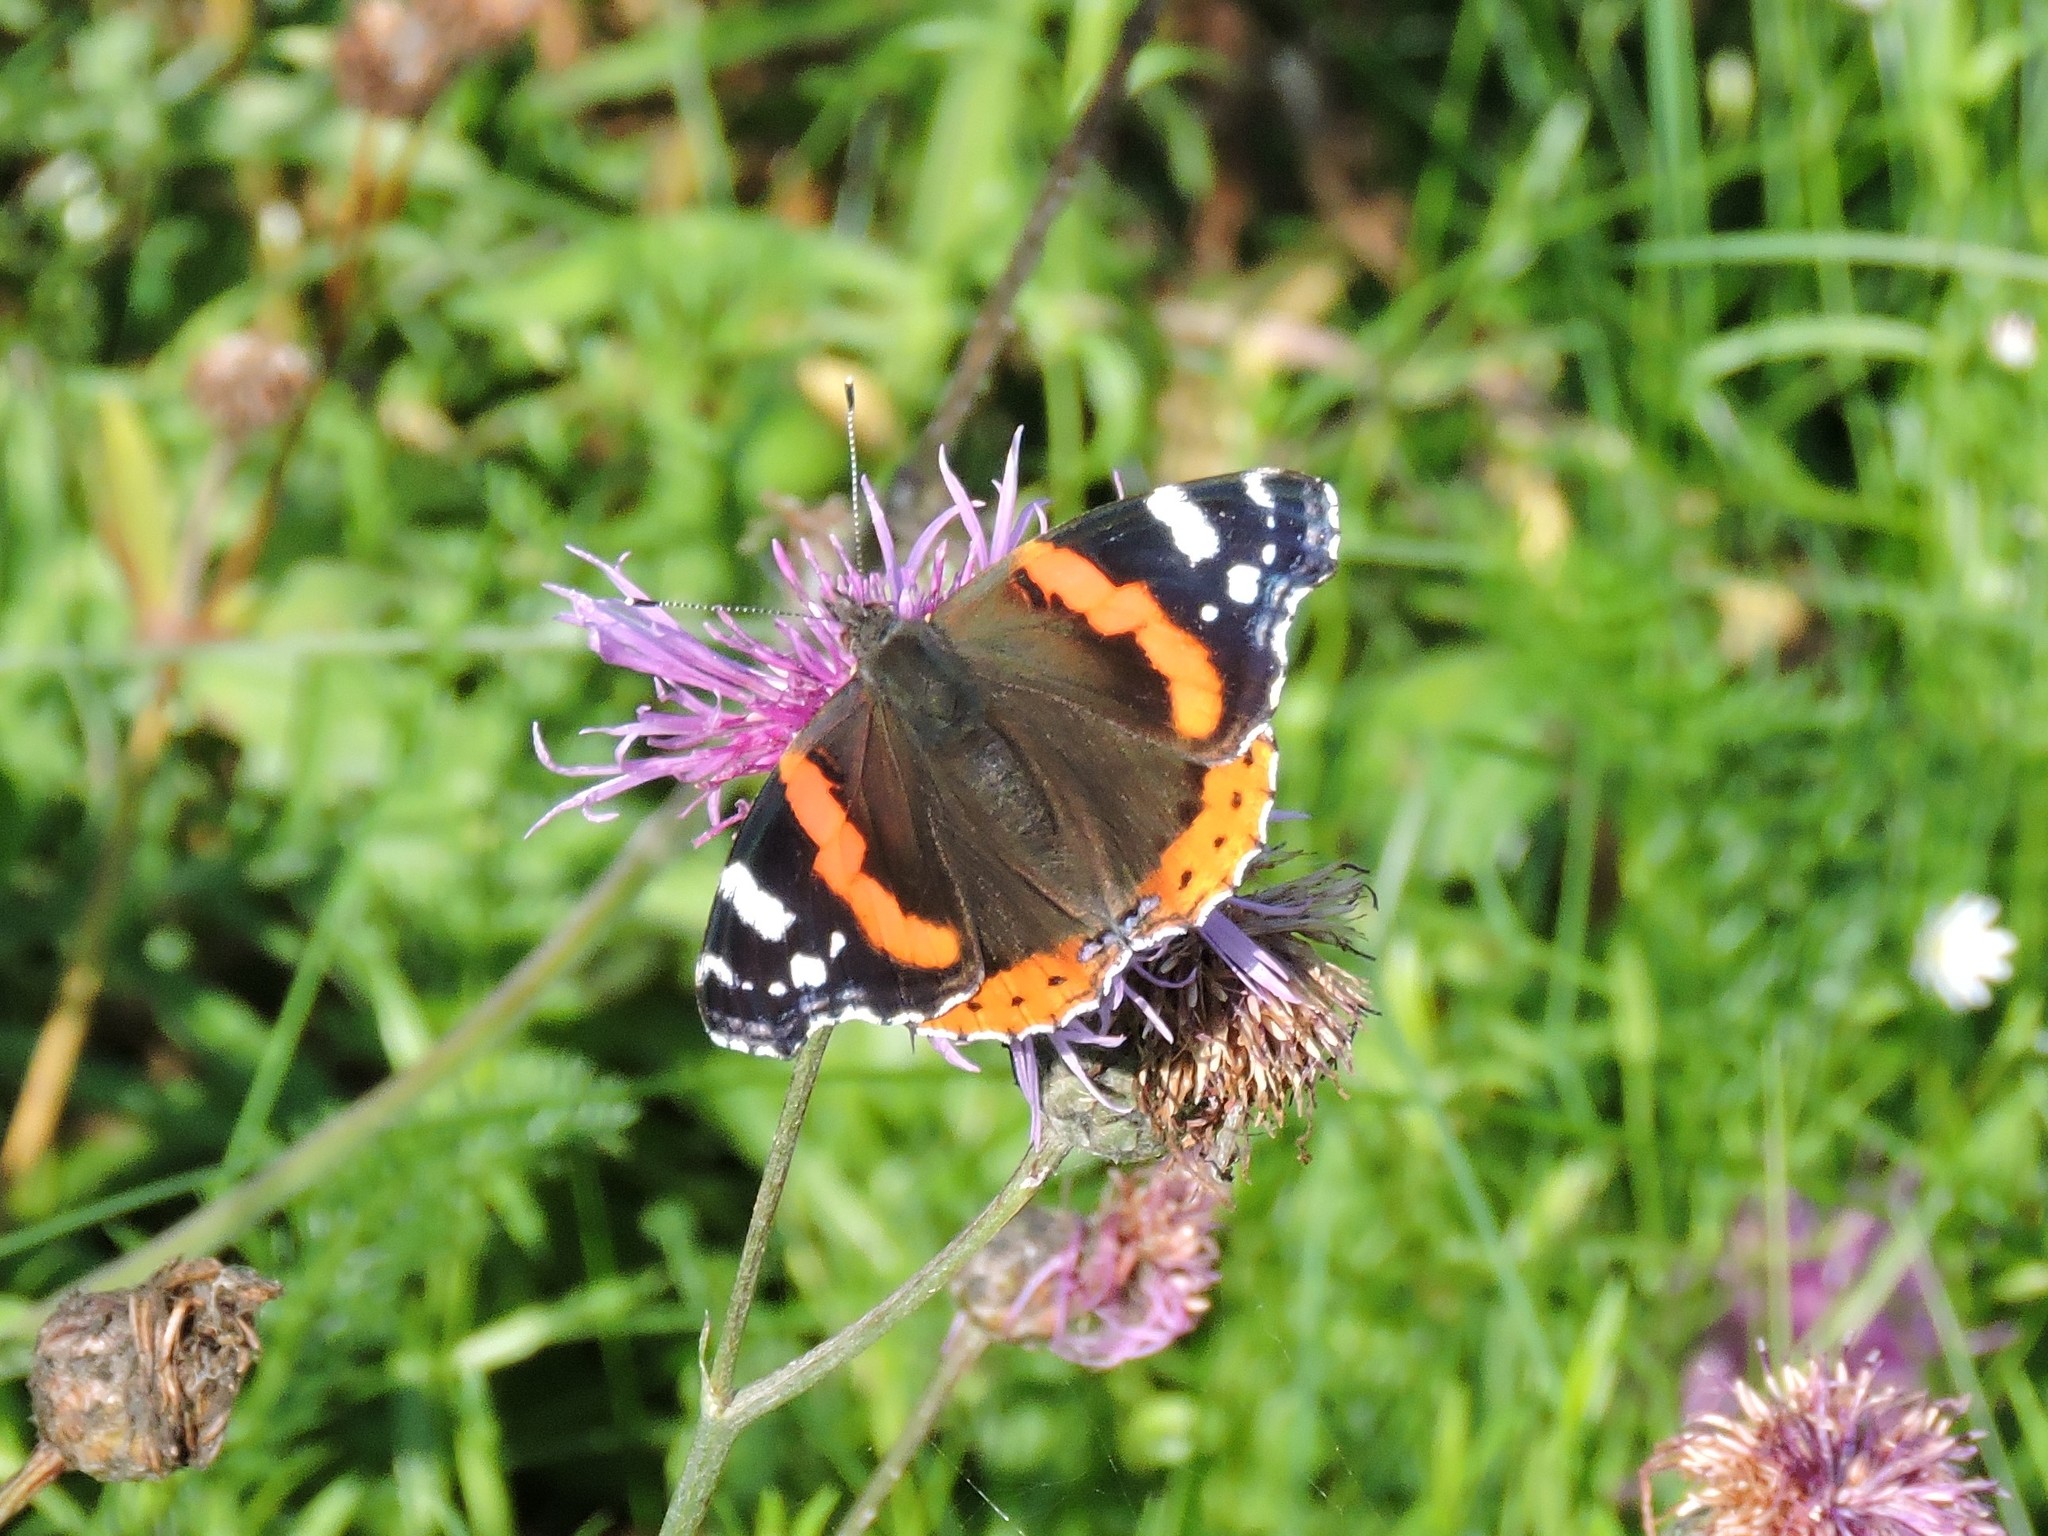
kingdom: Animalia
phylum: Arthropoda
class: Insecta
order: Lepidoptera
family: Nymphalidae
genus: Vanessa
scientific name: Vanessa atalanta
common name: Red admiral
